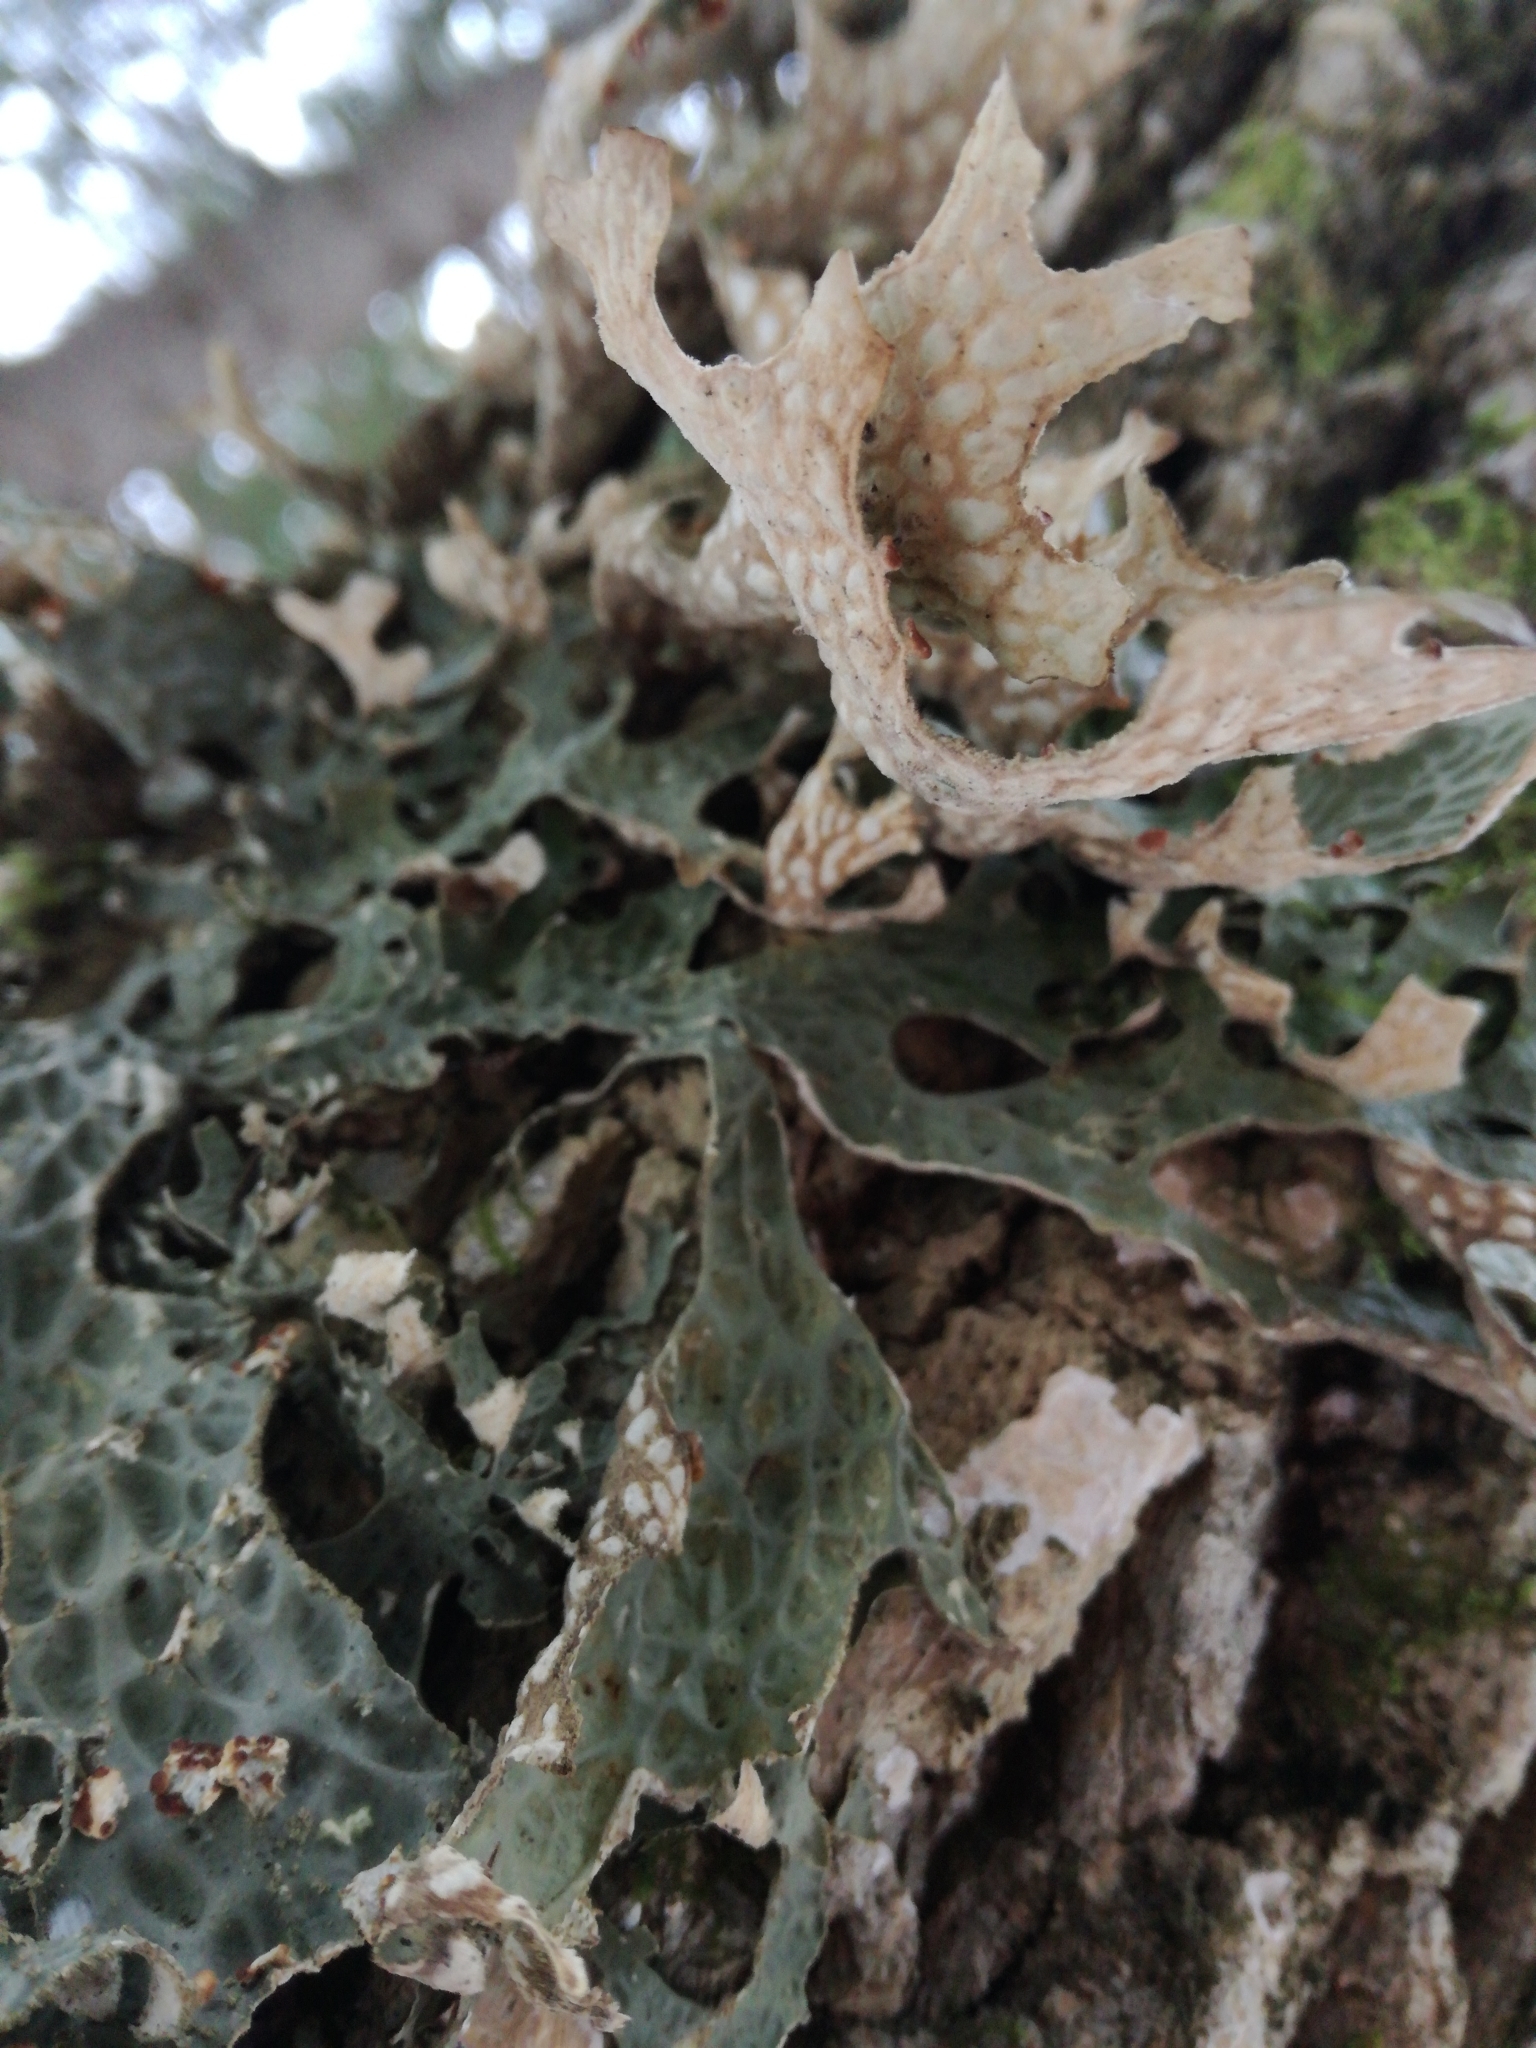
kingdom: Fungi
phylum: Ascomycota
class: Lecanoromycetes
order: Peltigerales
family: Lobariaceae
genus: Lobaria
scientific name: Lobaria pulmonaria
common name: Lungwort
